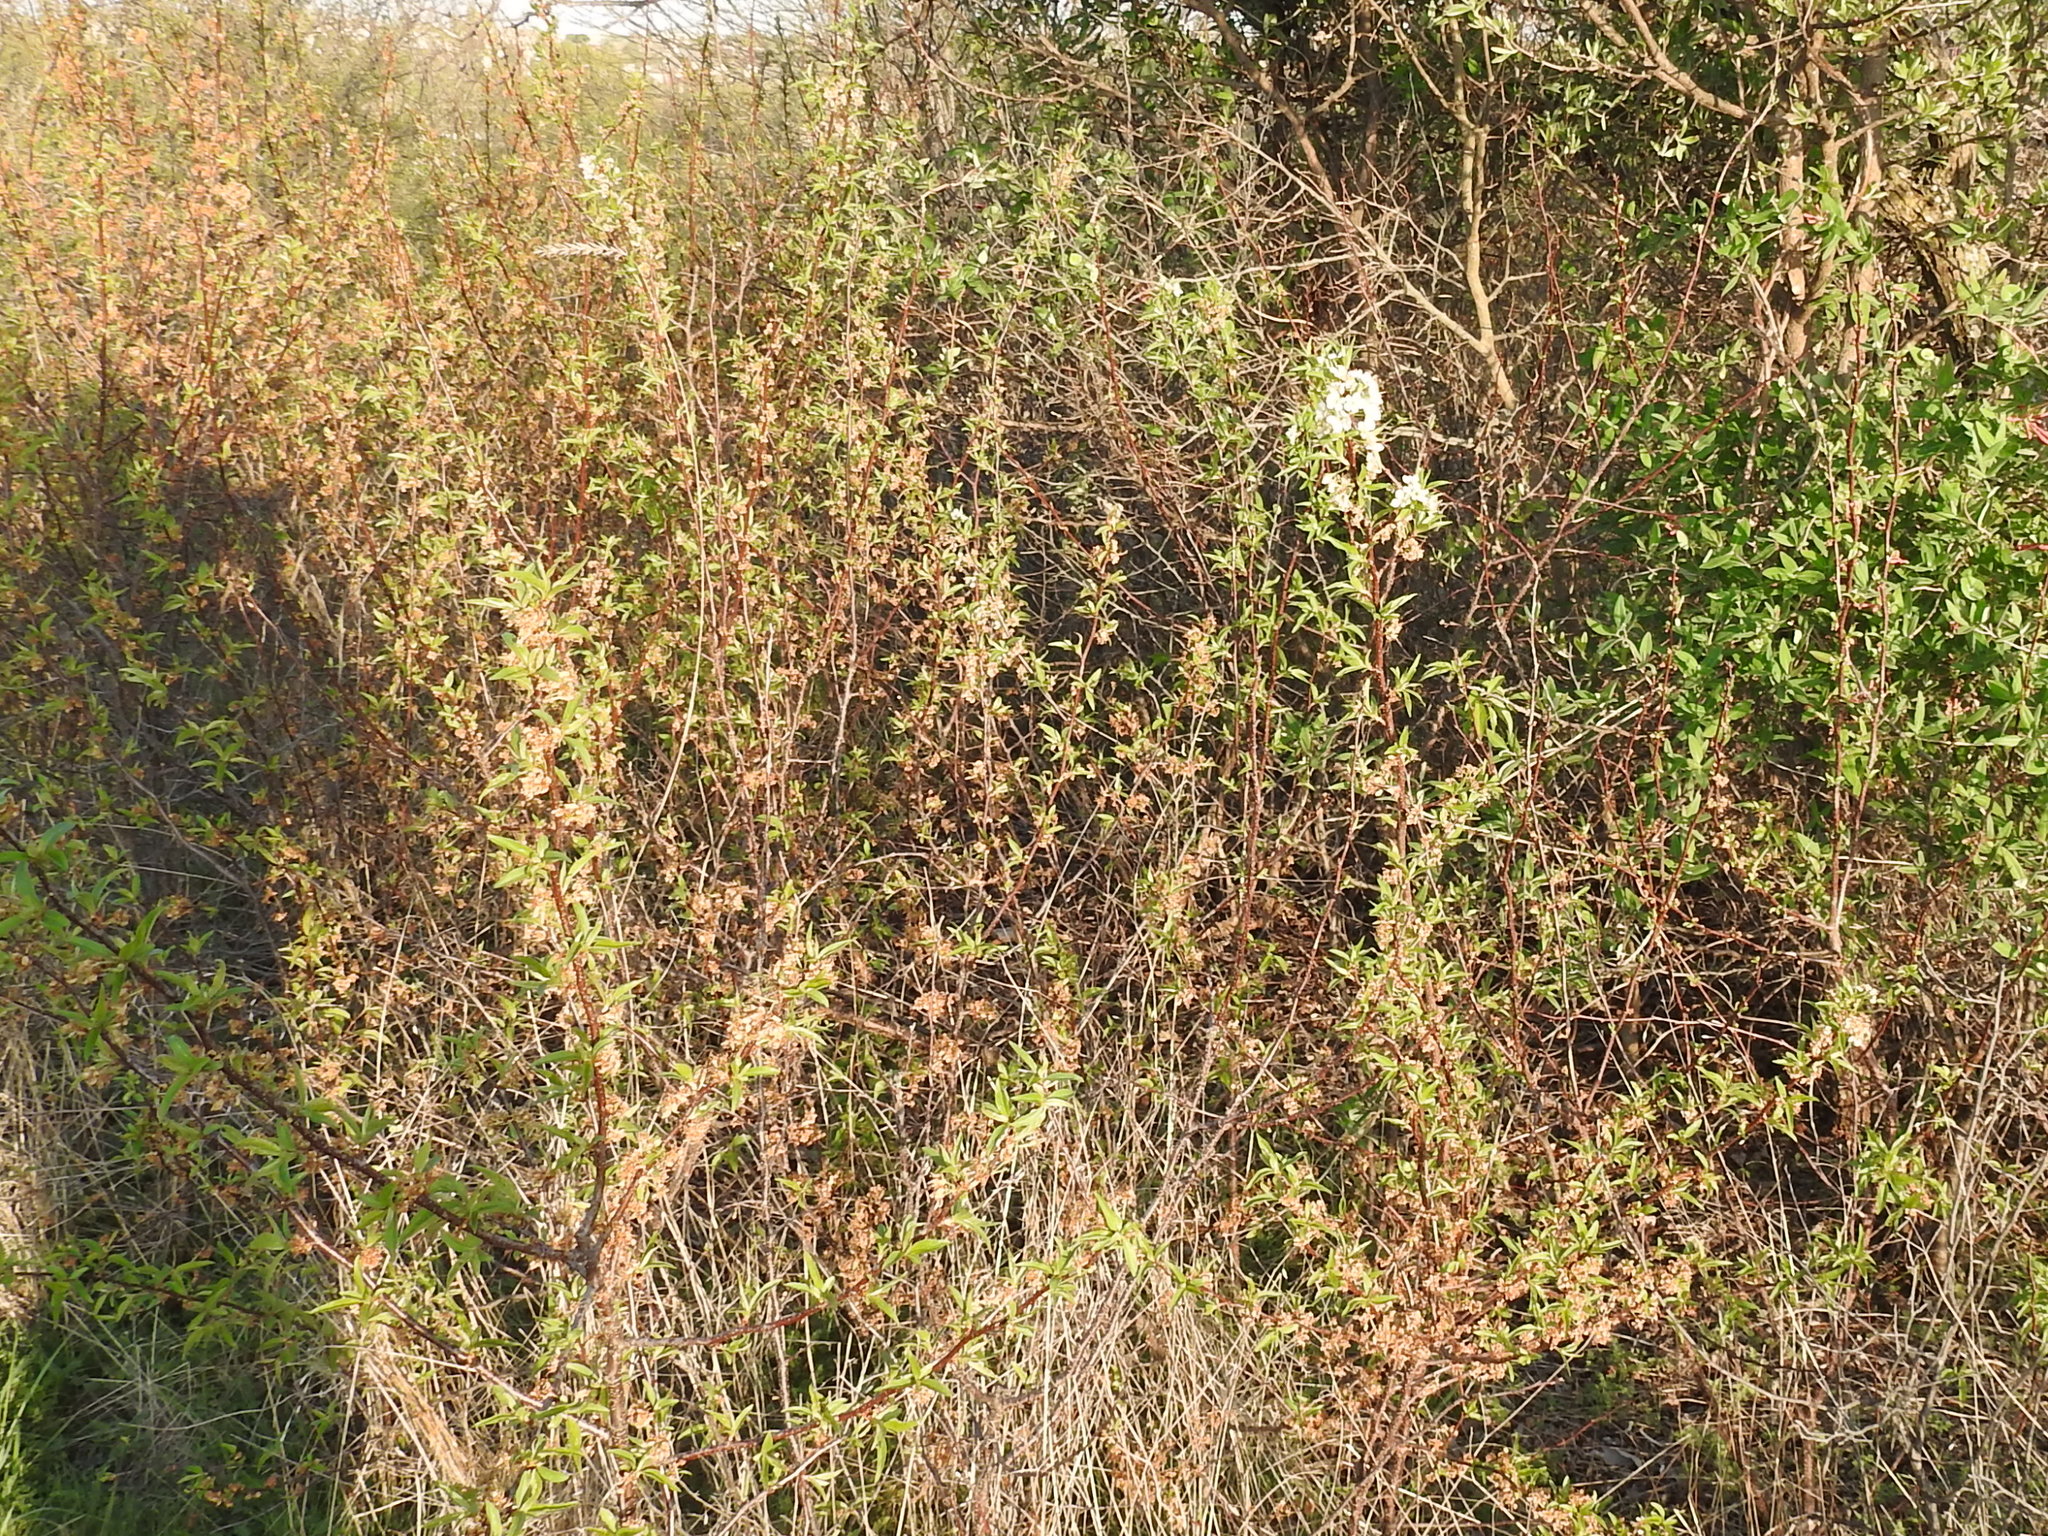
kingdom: Plantae
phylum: Tracheophyta
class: Magnoliopsida
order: Rosales
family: Rosaceae
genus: Prunus
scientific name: Prunus rivularis
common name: Creek plum
